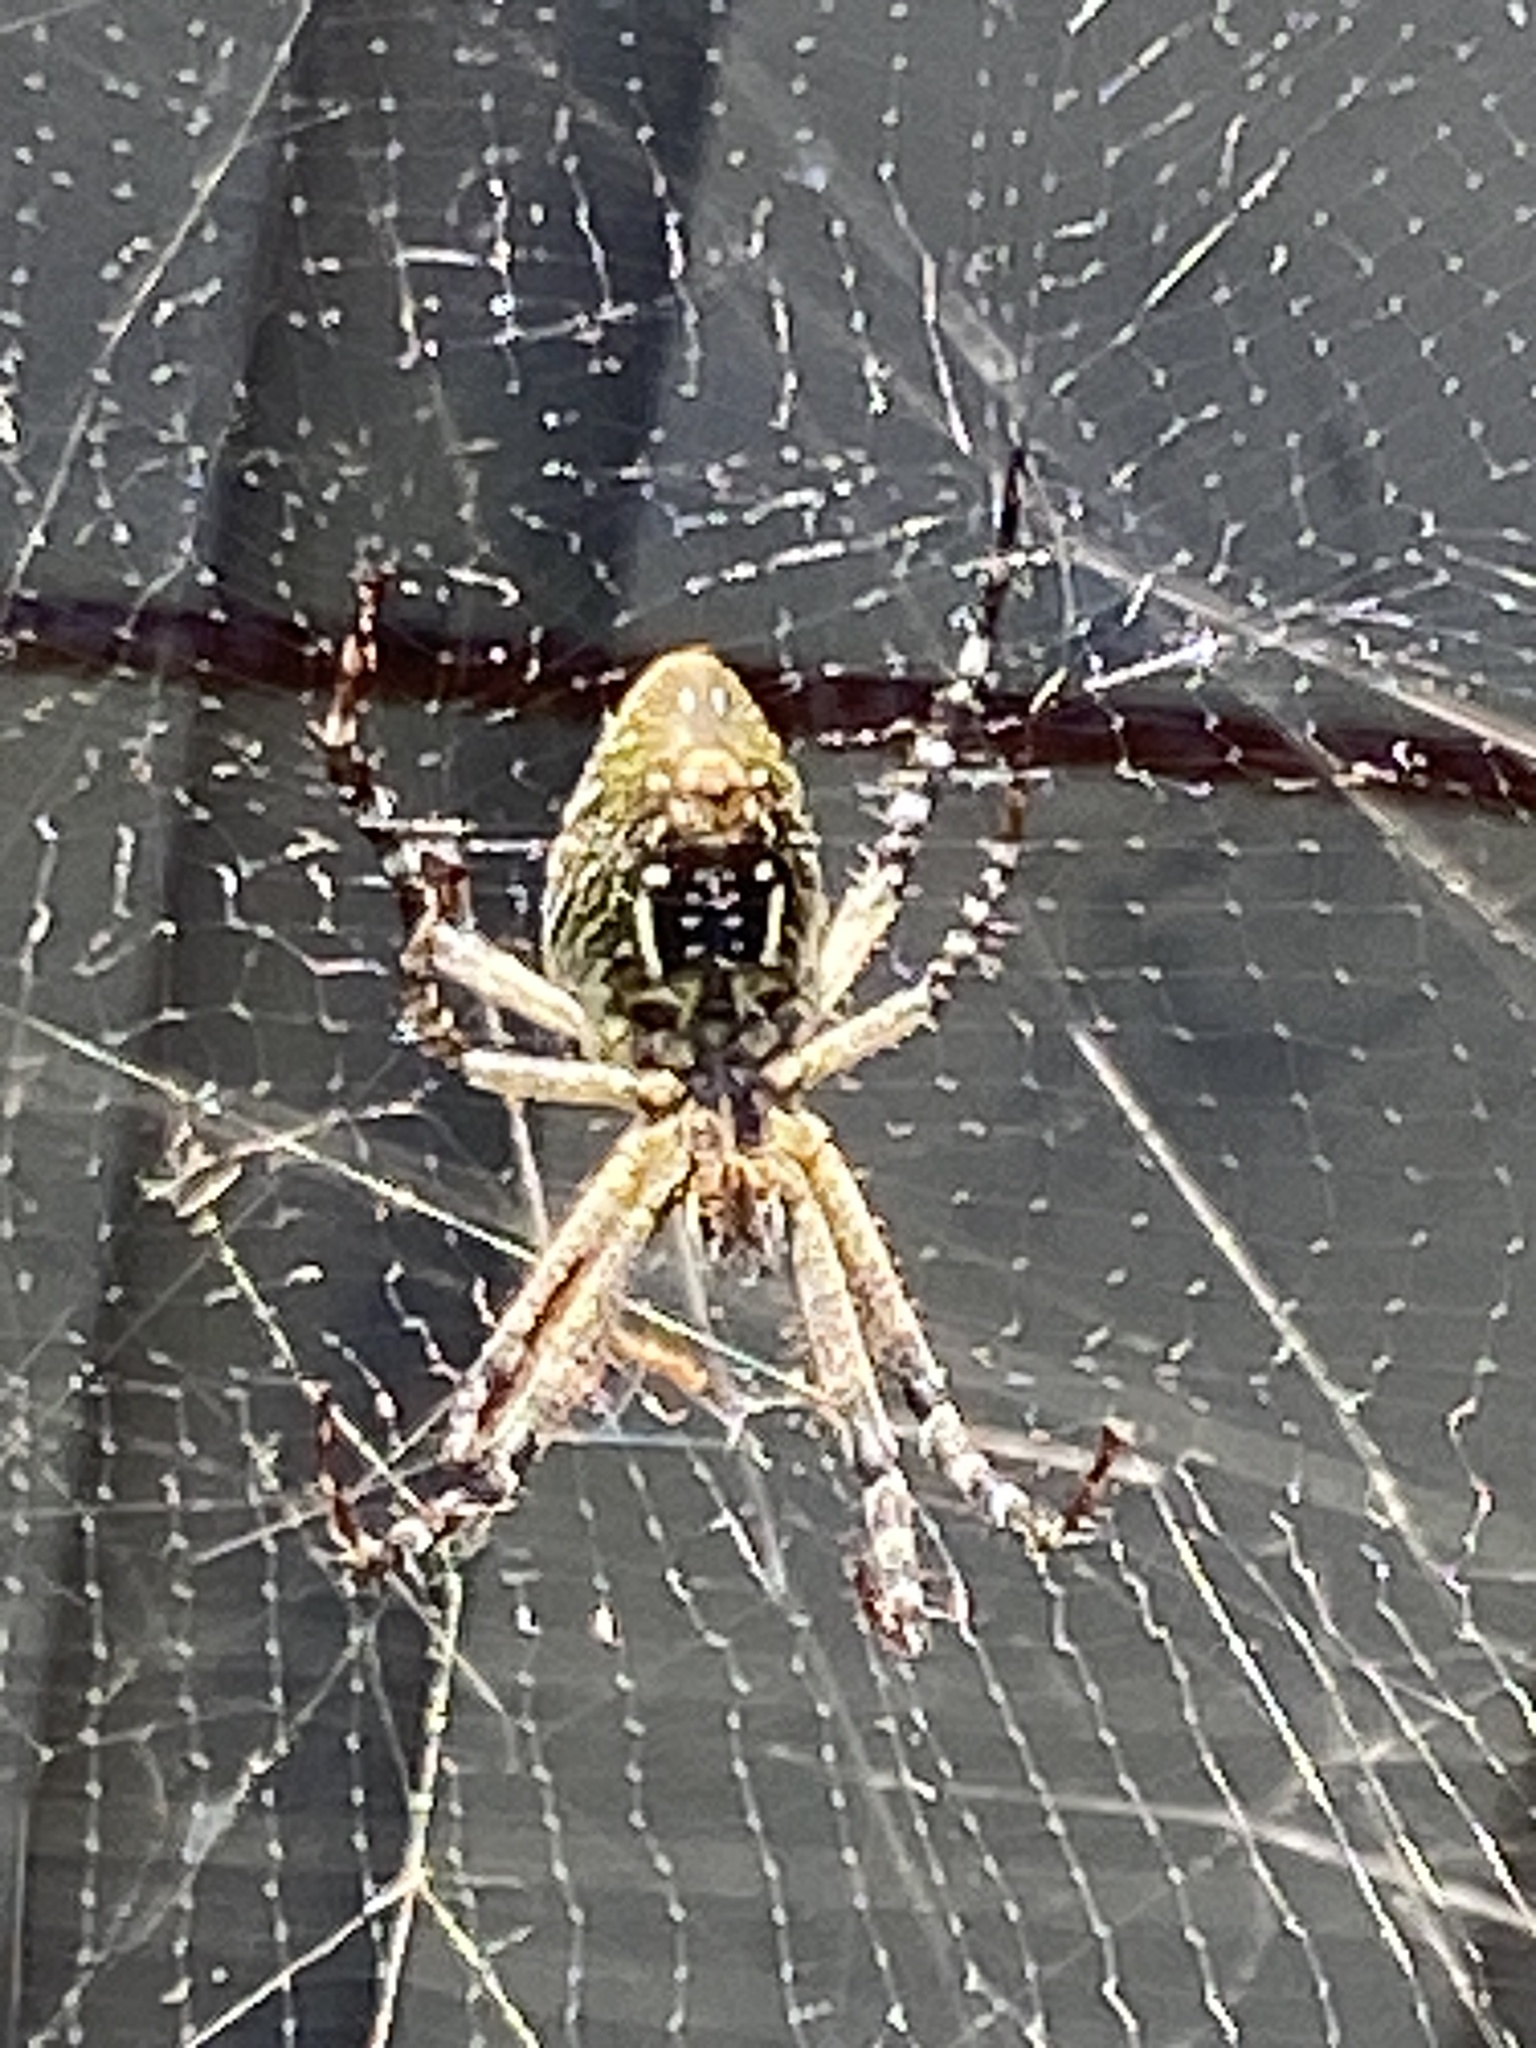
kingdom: Chromista
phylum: Ochrophyta
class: Dictyochophyceae
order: Pedinellales
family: Cyrtophoraceae
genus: Cyrtophora
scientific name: Cyrtophora moluccensis
